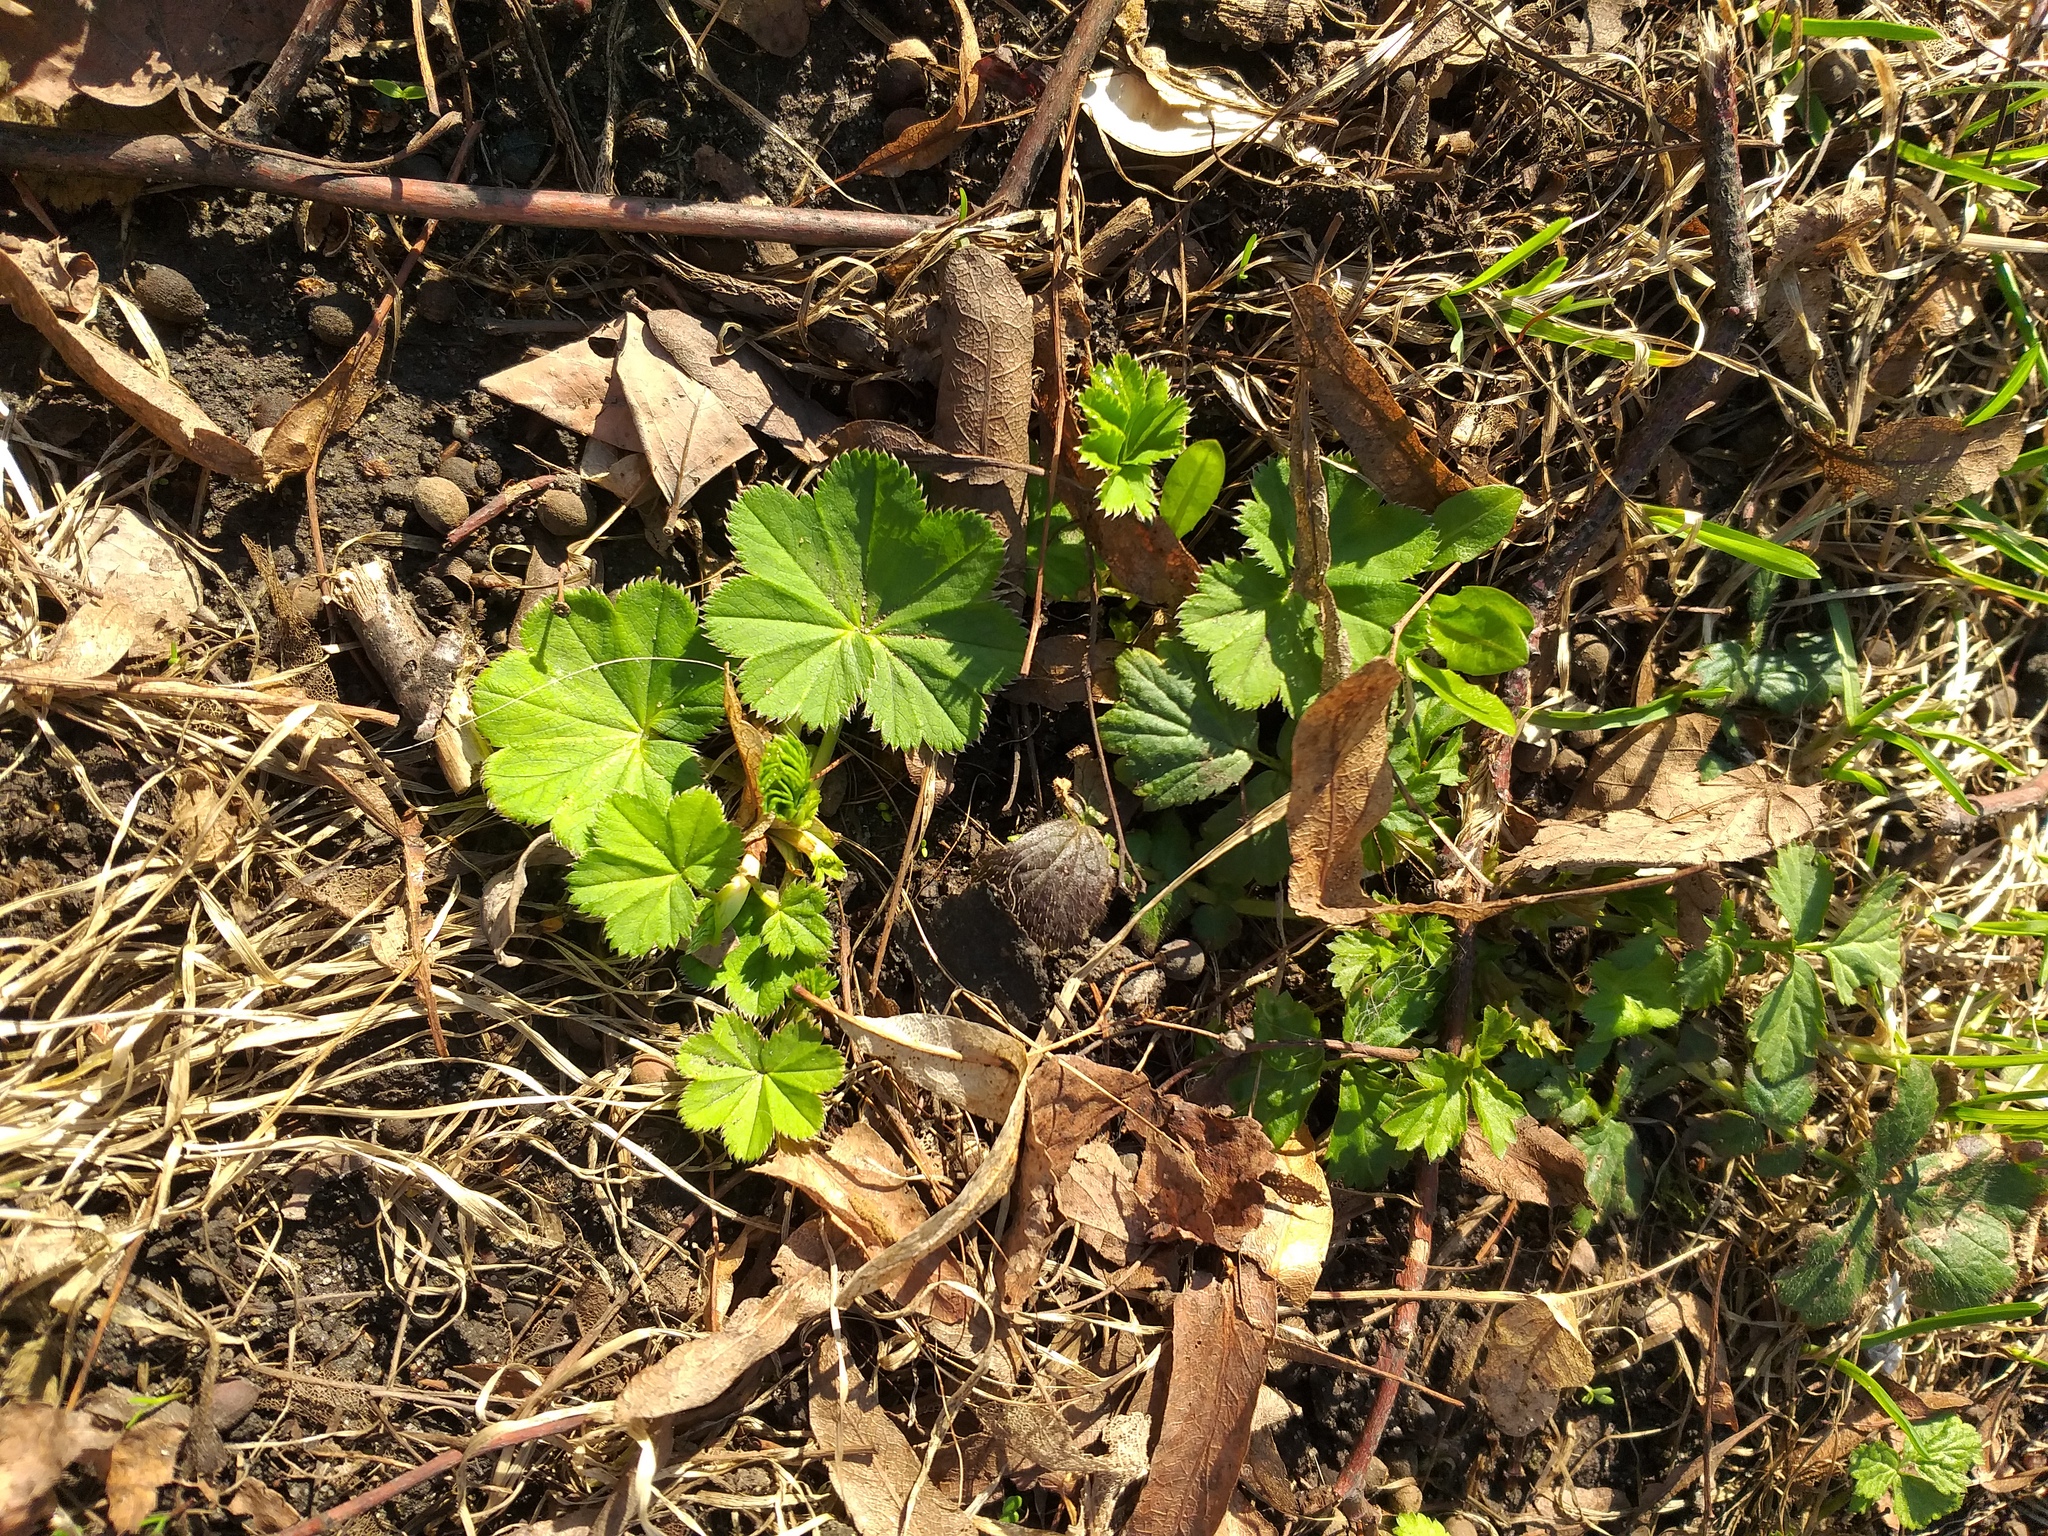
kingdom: Plantae
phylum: Tracheophyta
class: Magnoliopsida
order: Rosales
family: Rosaceae
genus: Alchemilla
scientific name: Alchemilla
